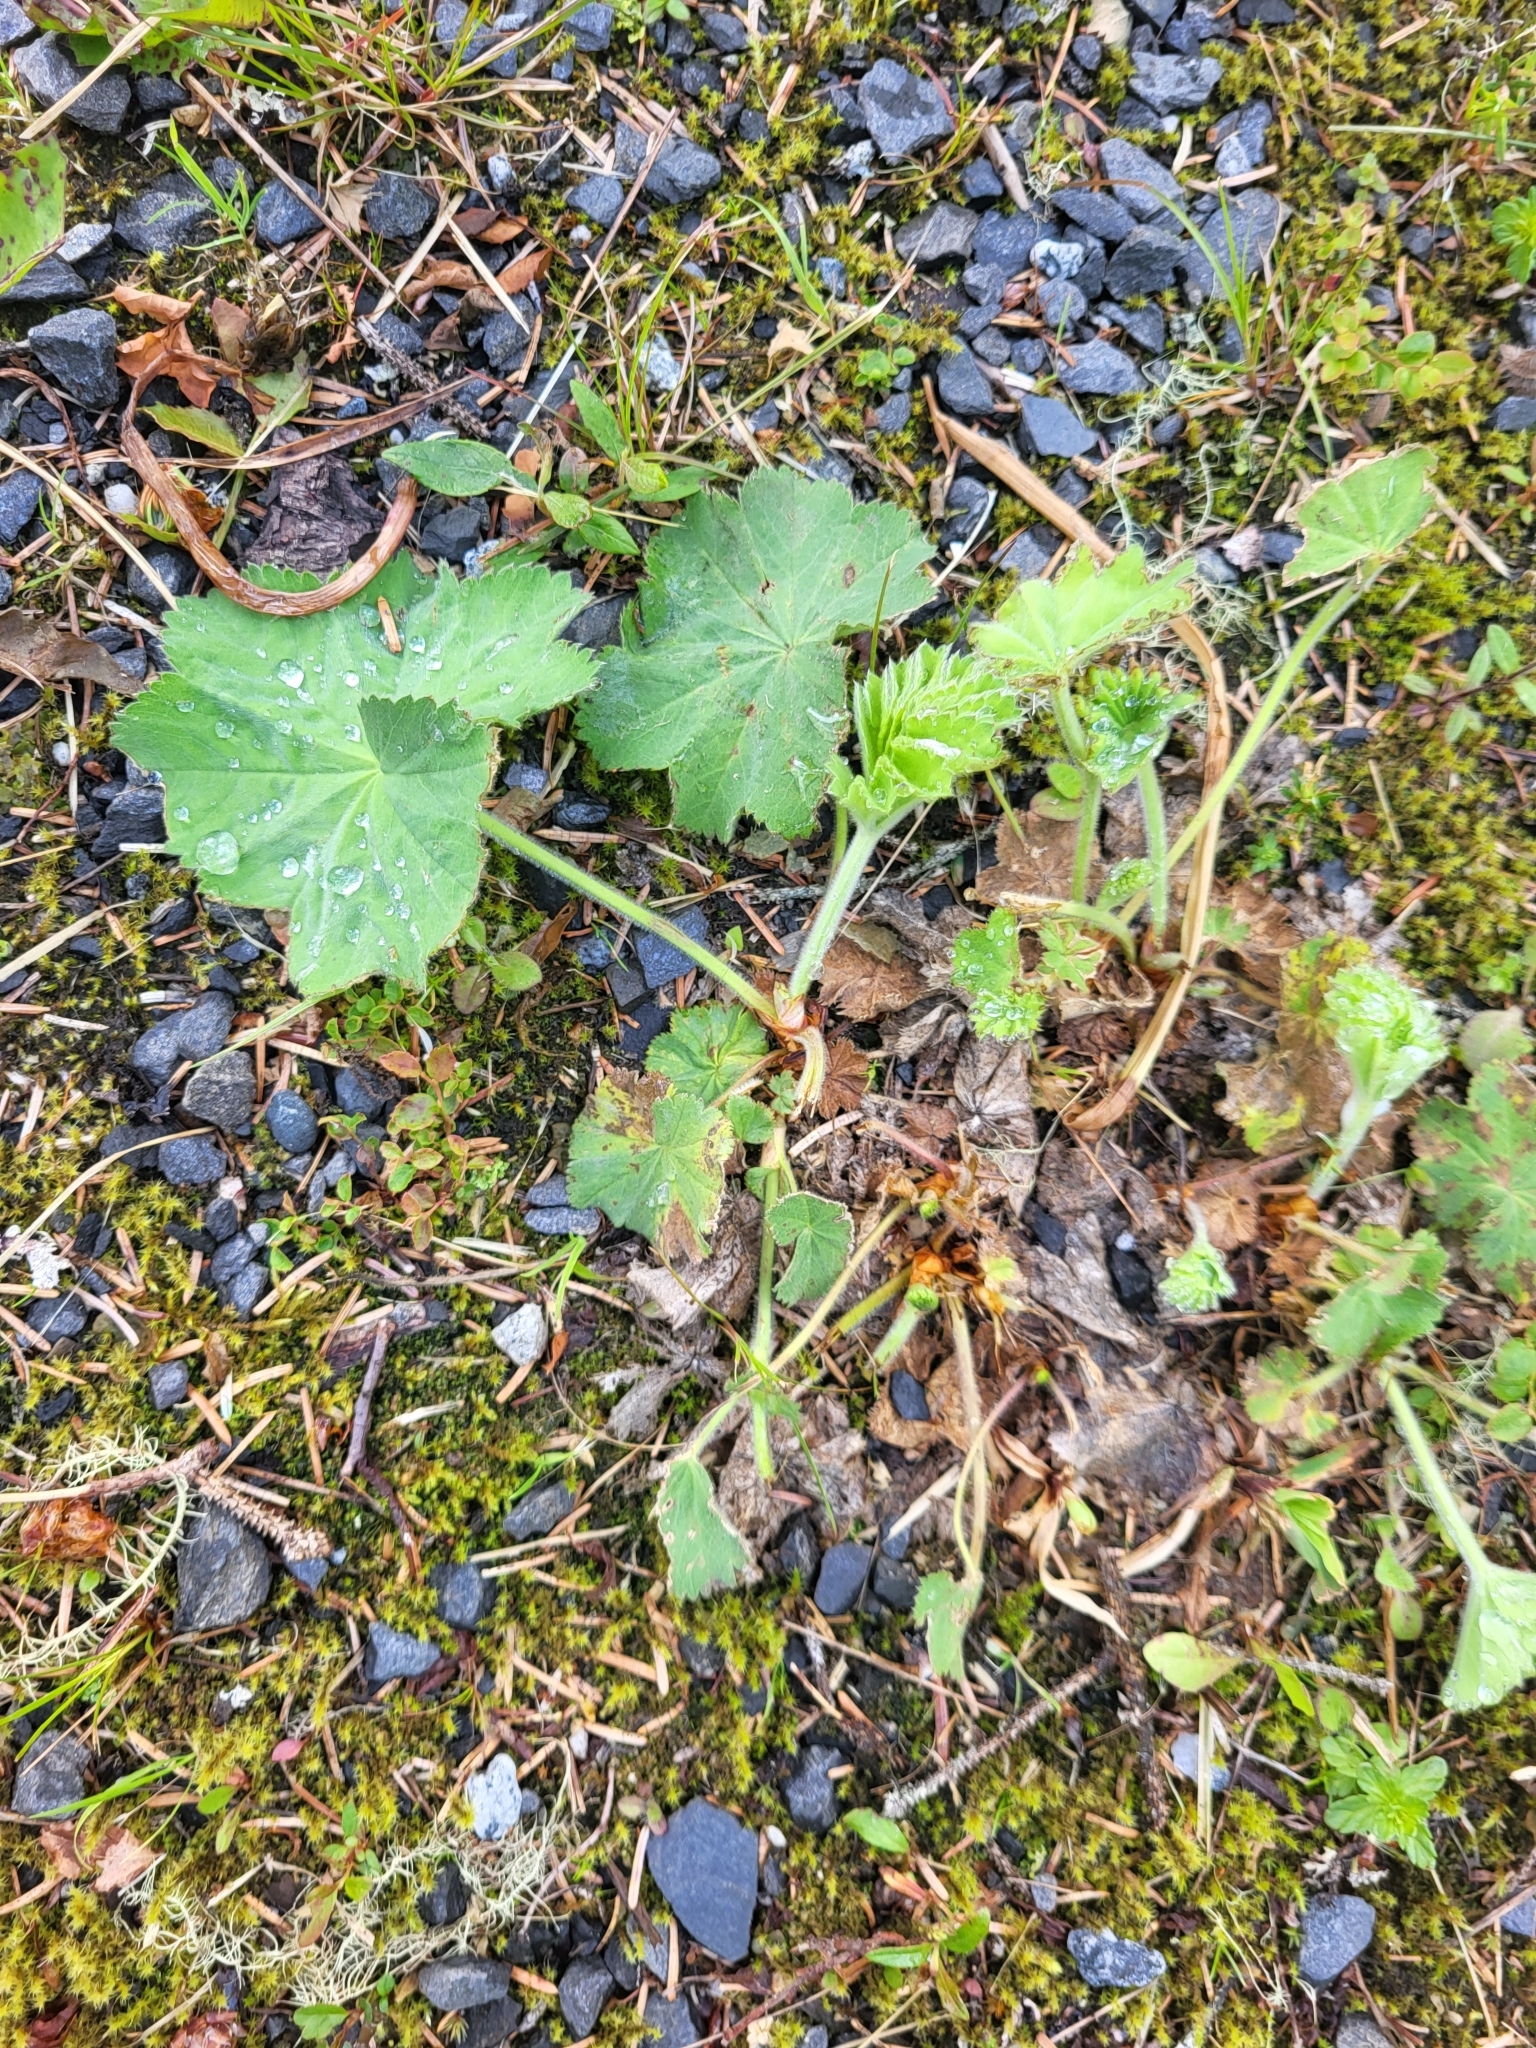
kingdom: Plantae
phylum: Tracheophyta
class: Magnoliopsida
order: Rosales
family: Rosaceae
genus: Alchemilla
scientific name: Alchemilla mollis
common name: Lady's-mantle
